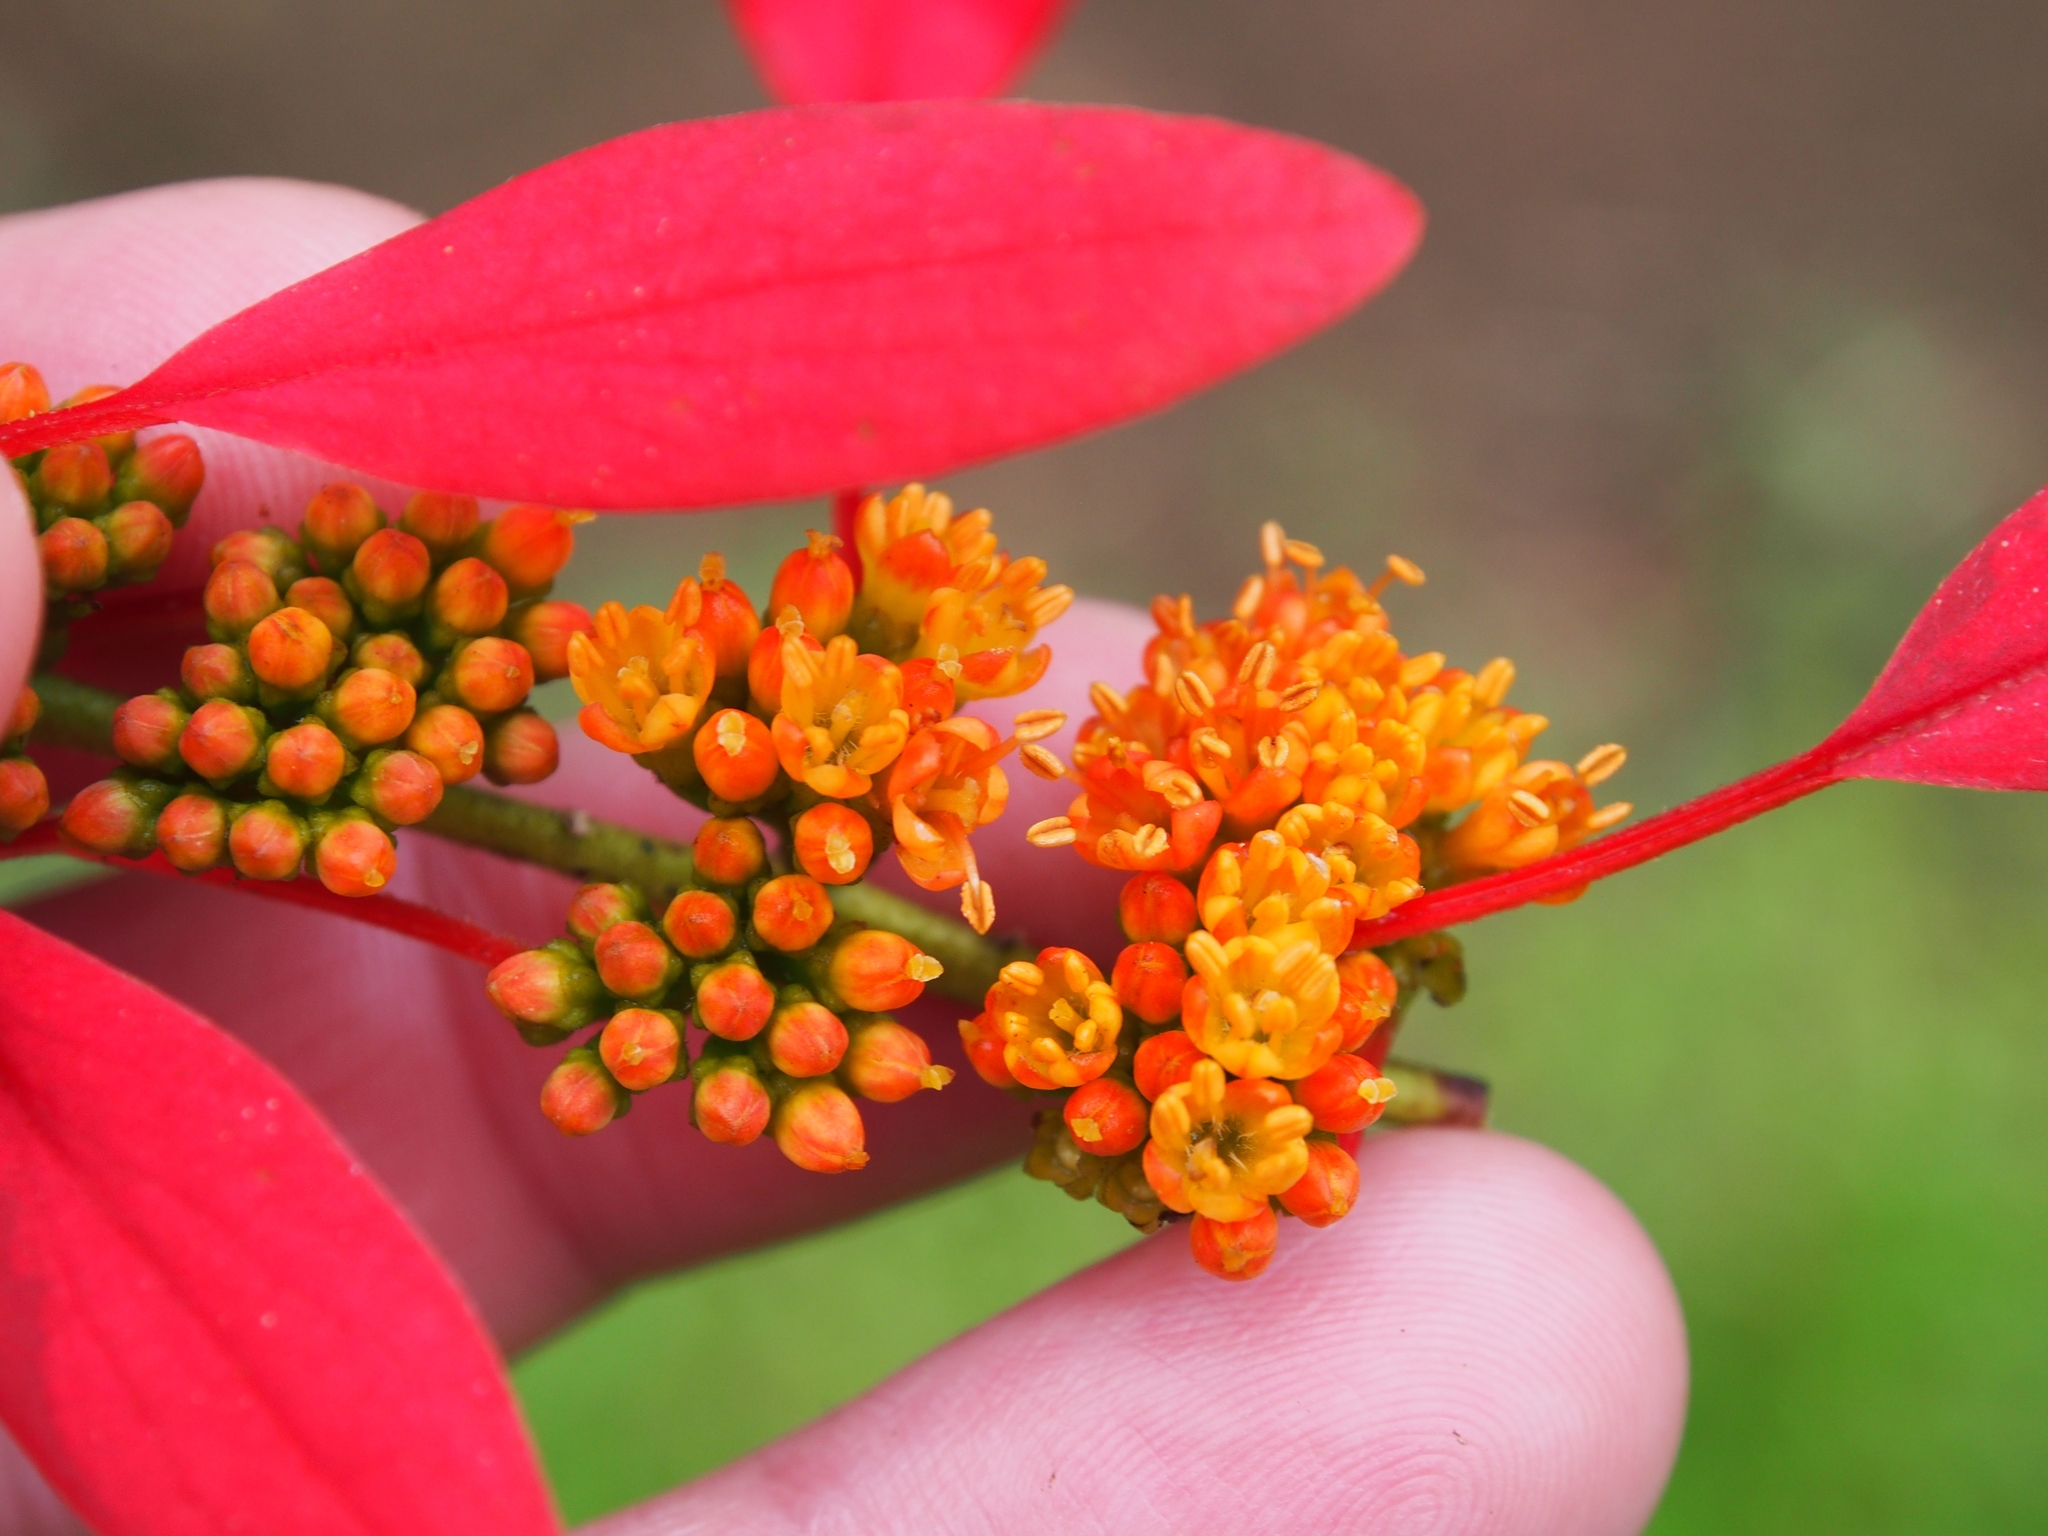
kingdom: Plantae
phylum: Tracheophyta
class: Magnoliopsida
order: Gentianales
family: Rubiaceae
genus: Warszewiczia
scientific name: Warszewiczia coccinea
